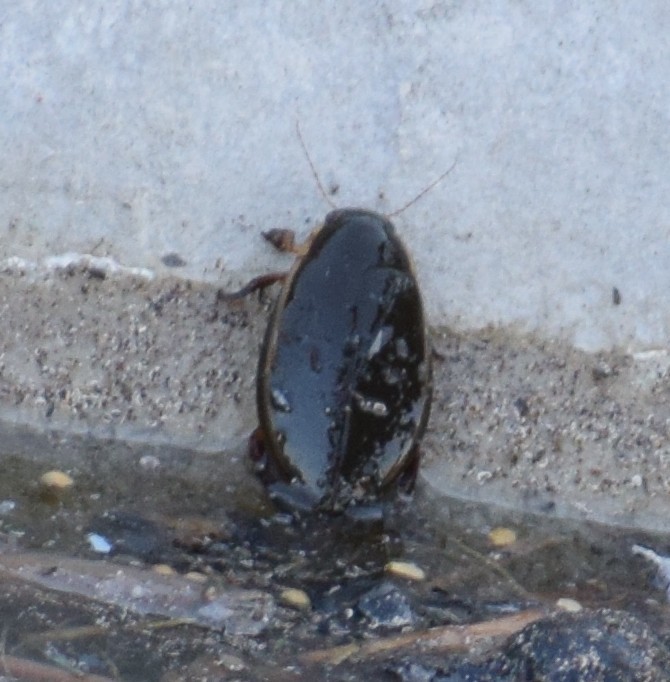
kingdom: Animalia
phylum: Arthropoda
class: Insecta
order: Coleoptera
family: Dytiscidae
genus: Cybister
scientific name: Cybister lateralimarginalis
